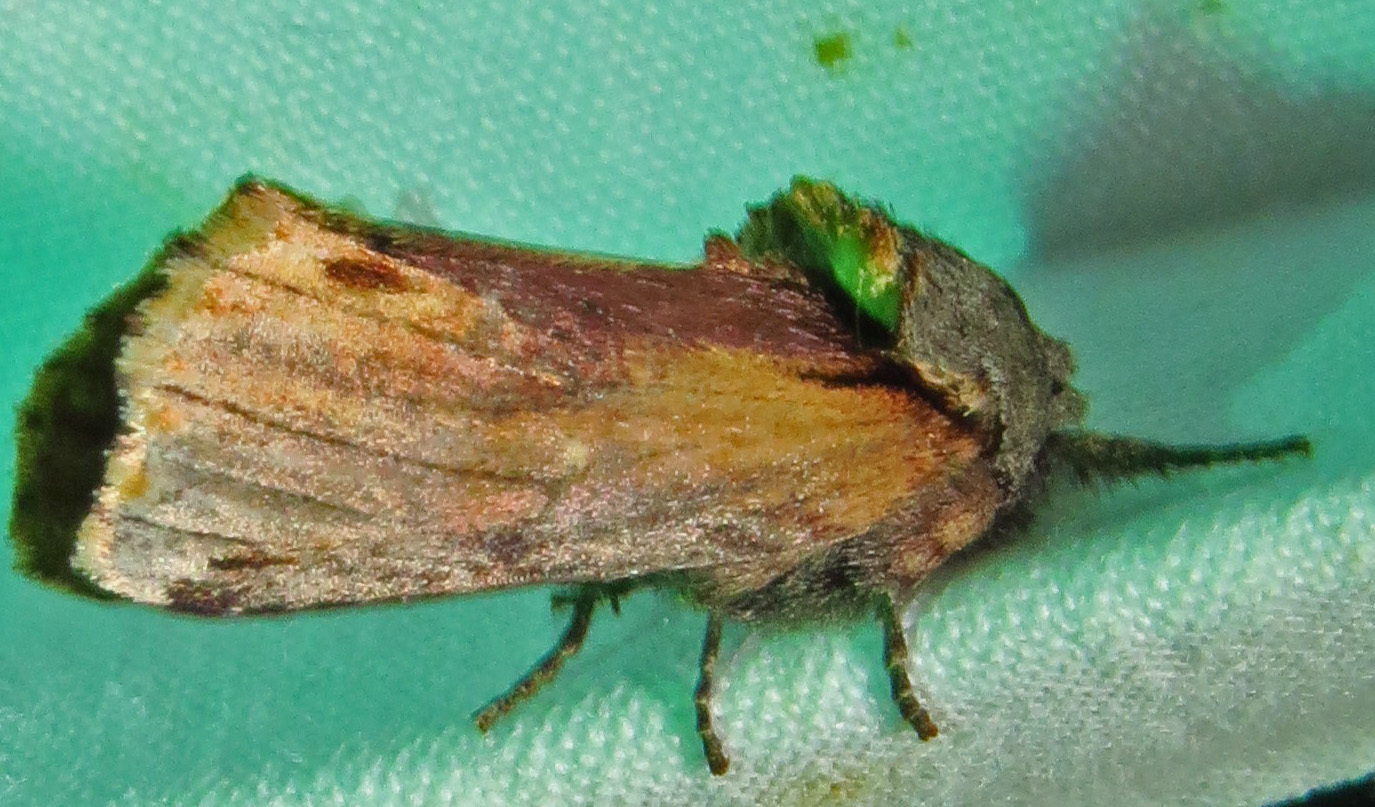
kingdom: Animalia
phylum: Arthropoda
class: Insecta
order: Lepidoptera
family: Notodontidae
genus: Schizura
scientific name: Schizura
